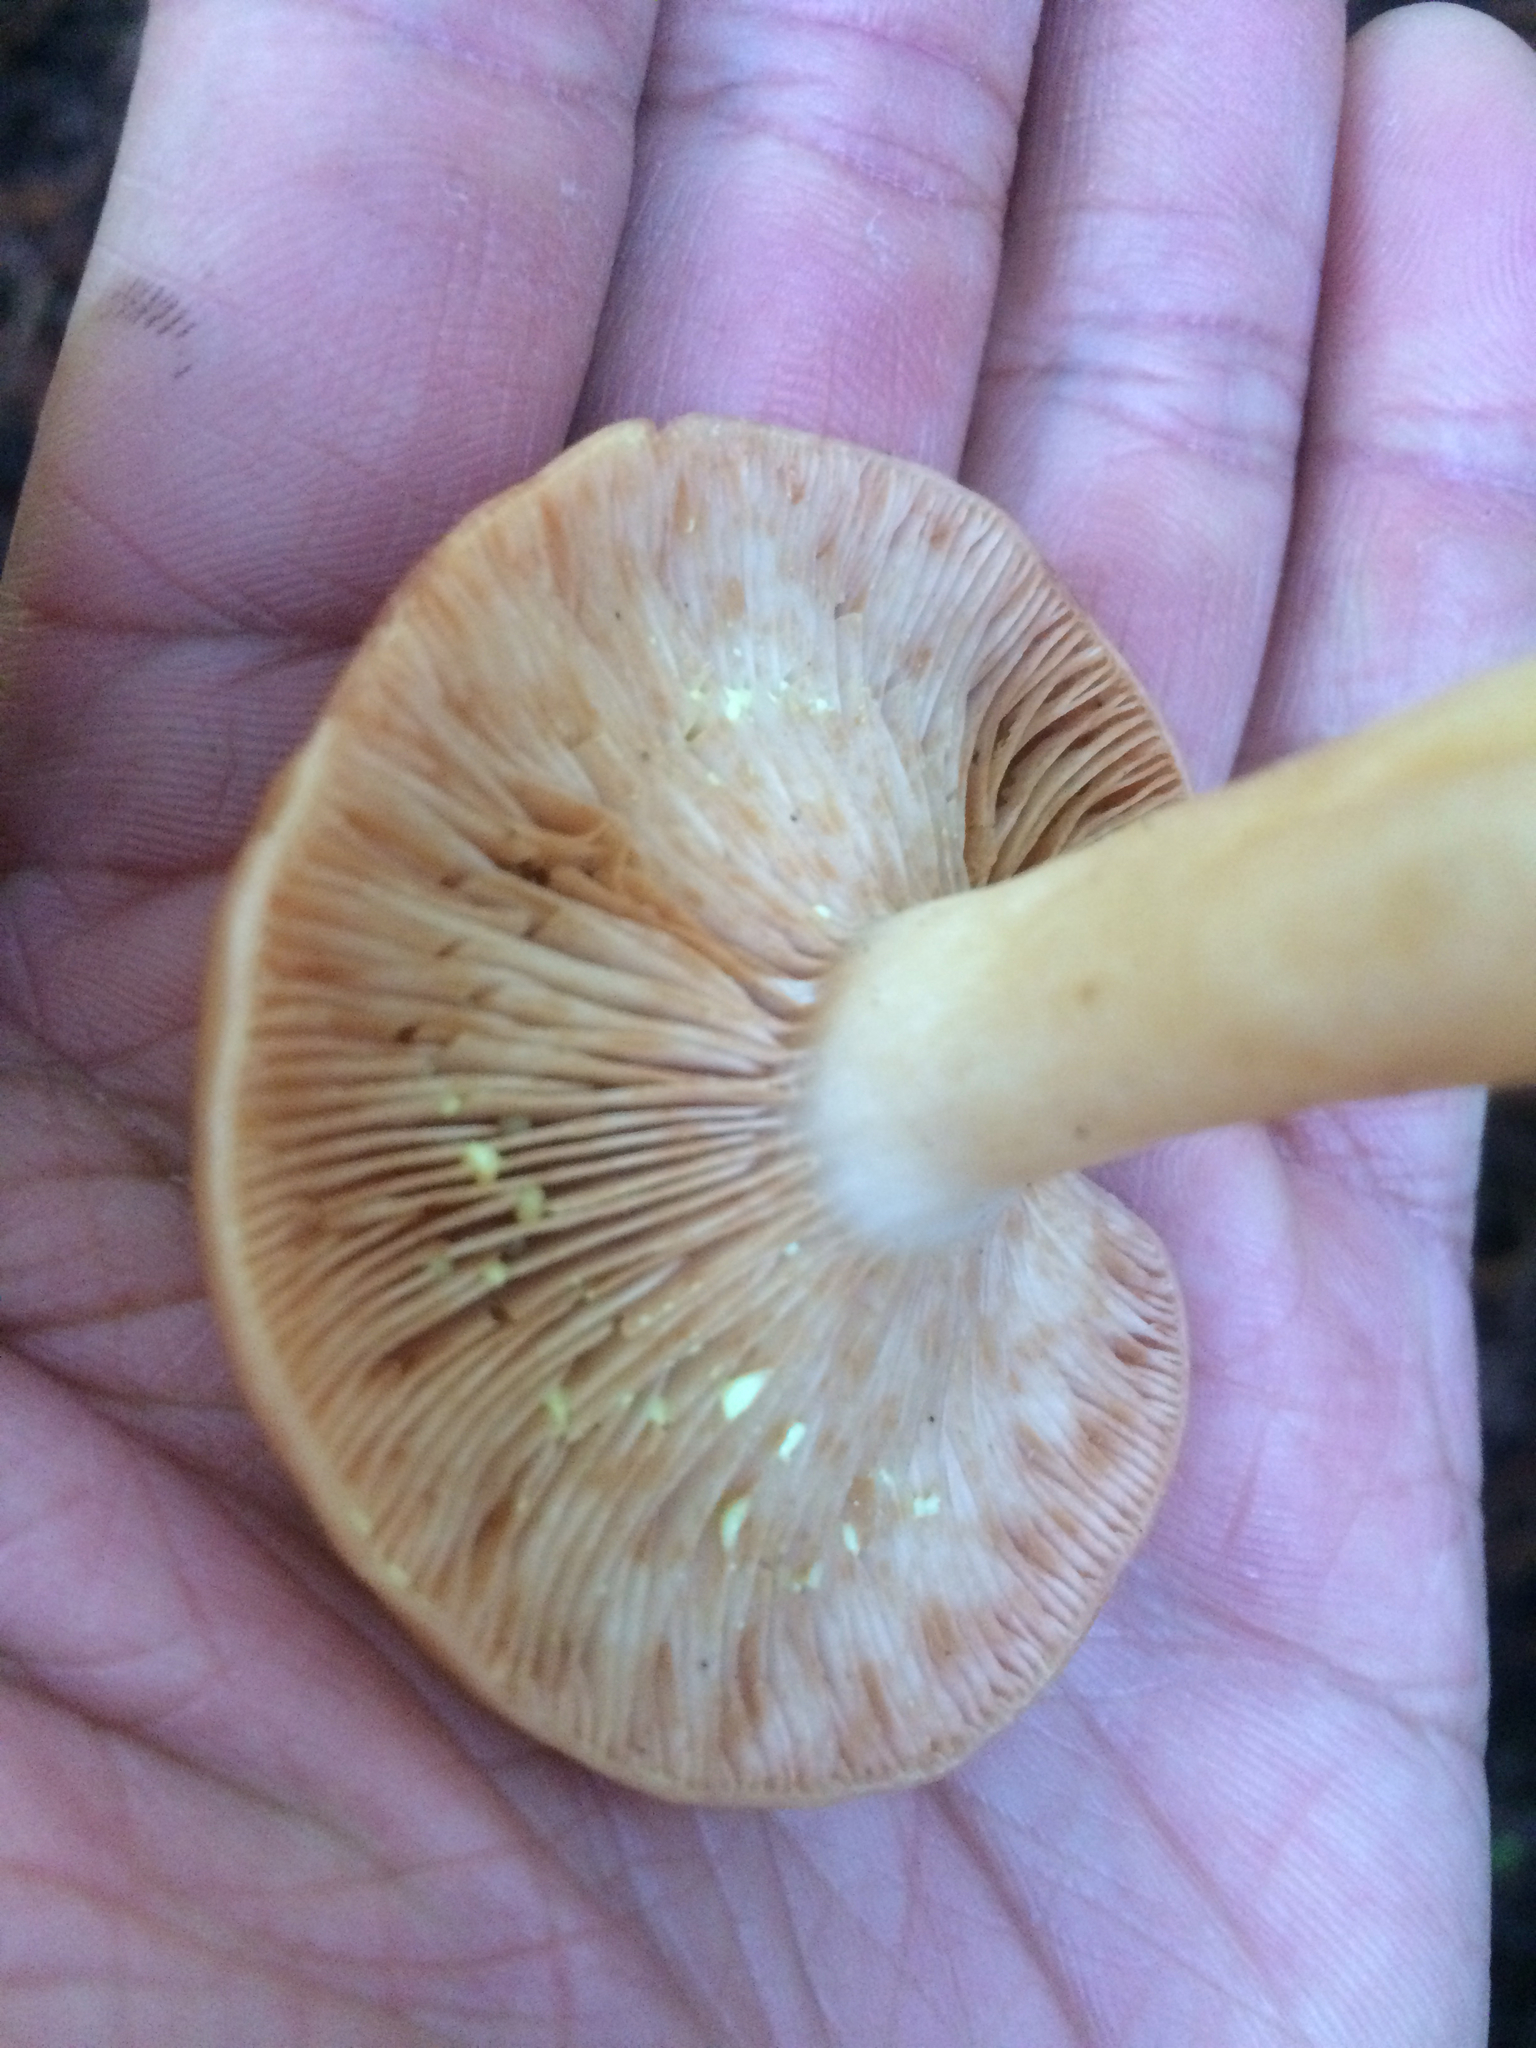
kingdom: Fungi
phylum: Basidiomycota
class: Agaricomycetes
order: Russulales
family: Russulaceae
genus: Lactarius
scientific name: Lactarius xanthogalactus
